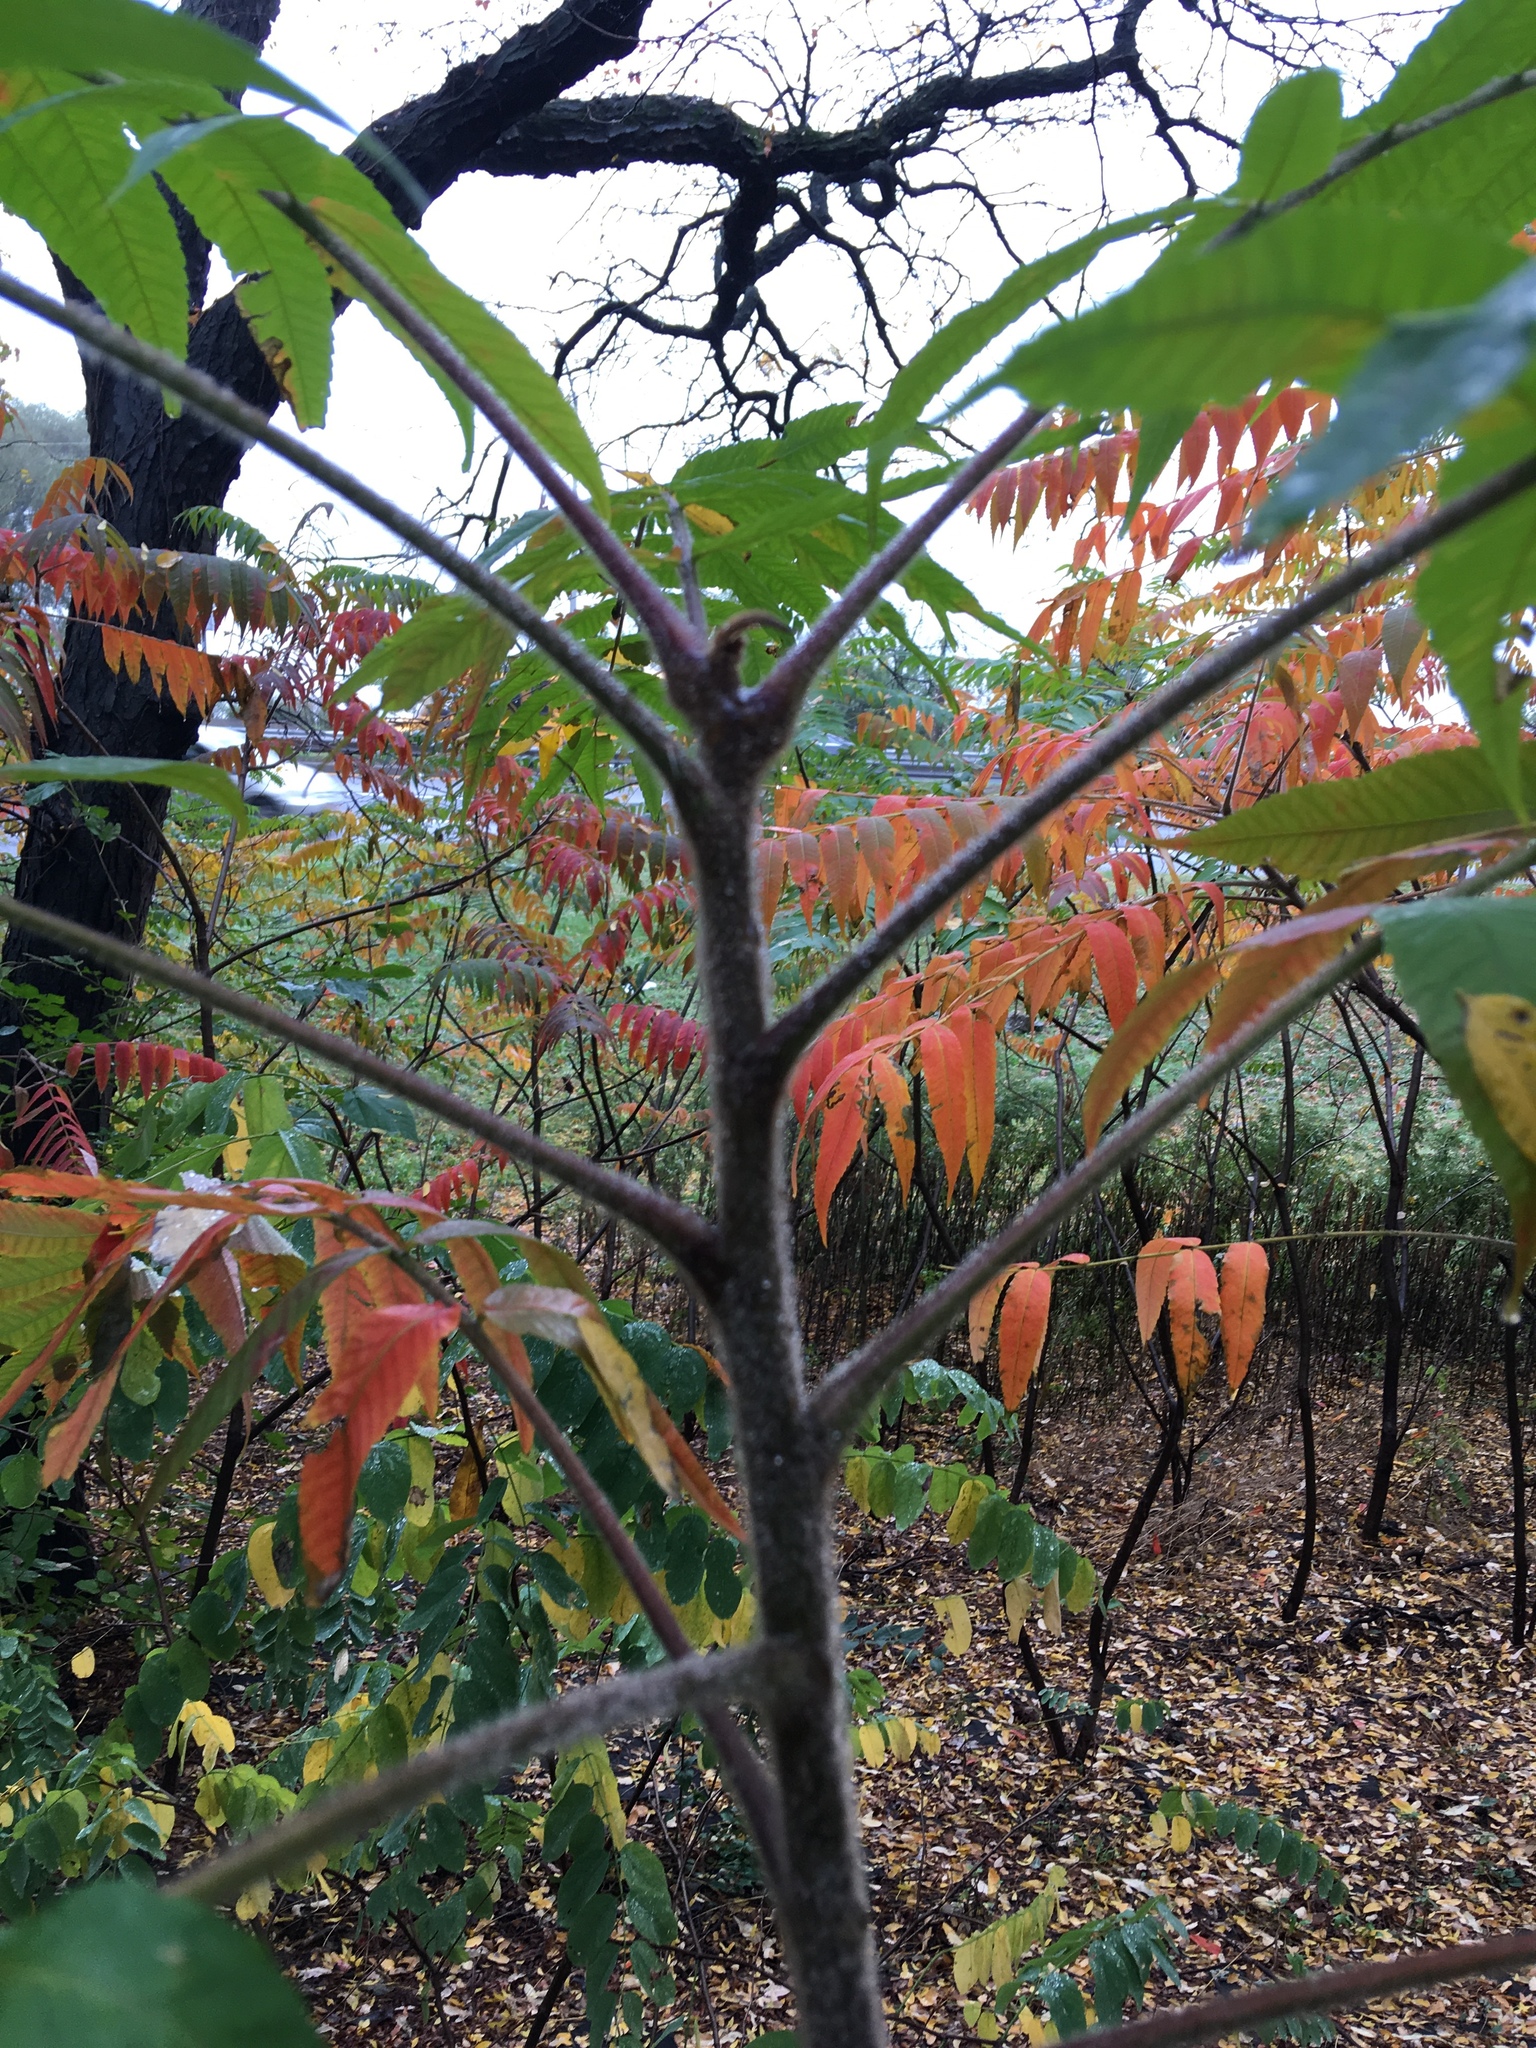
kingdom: Plantae
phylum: Tracheophyta
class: Magnoliopsida
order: Sapindales
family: Anacardiaceae
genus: Rhus
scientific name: Rhus typhina
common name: Staghorn sumac
